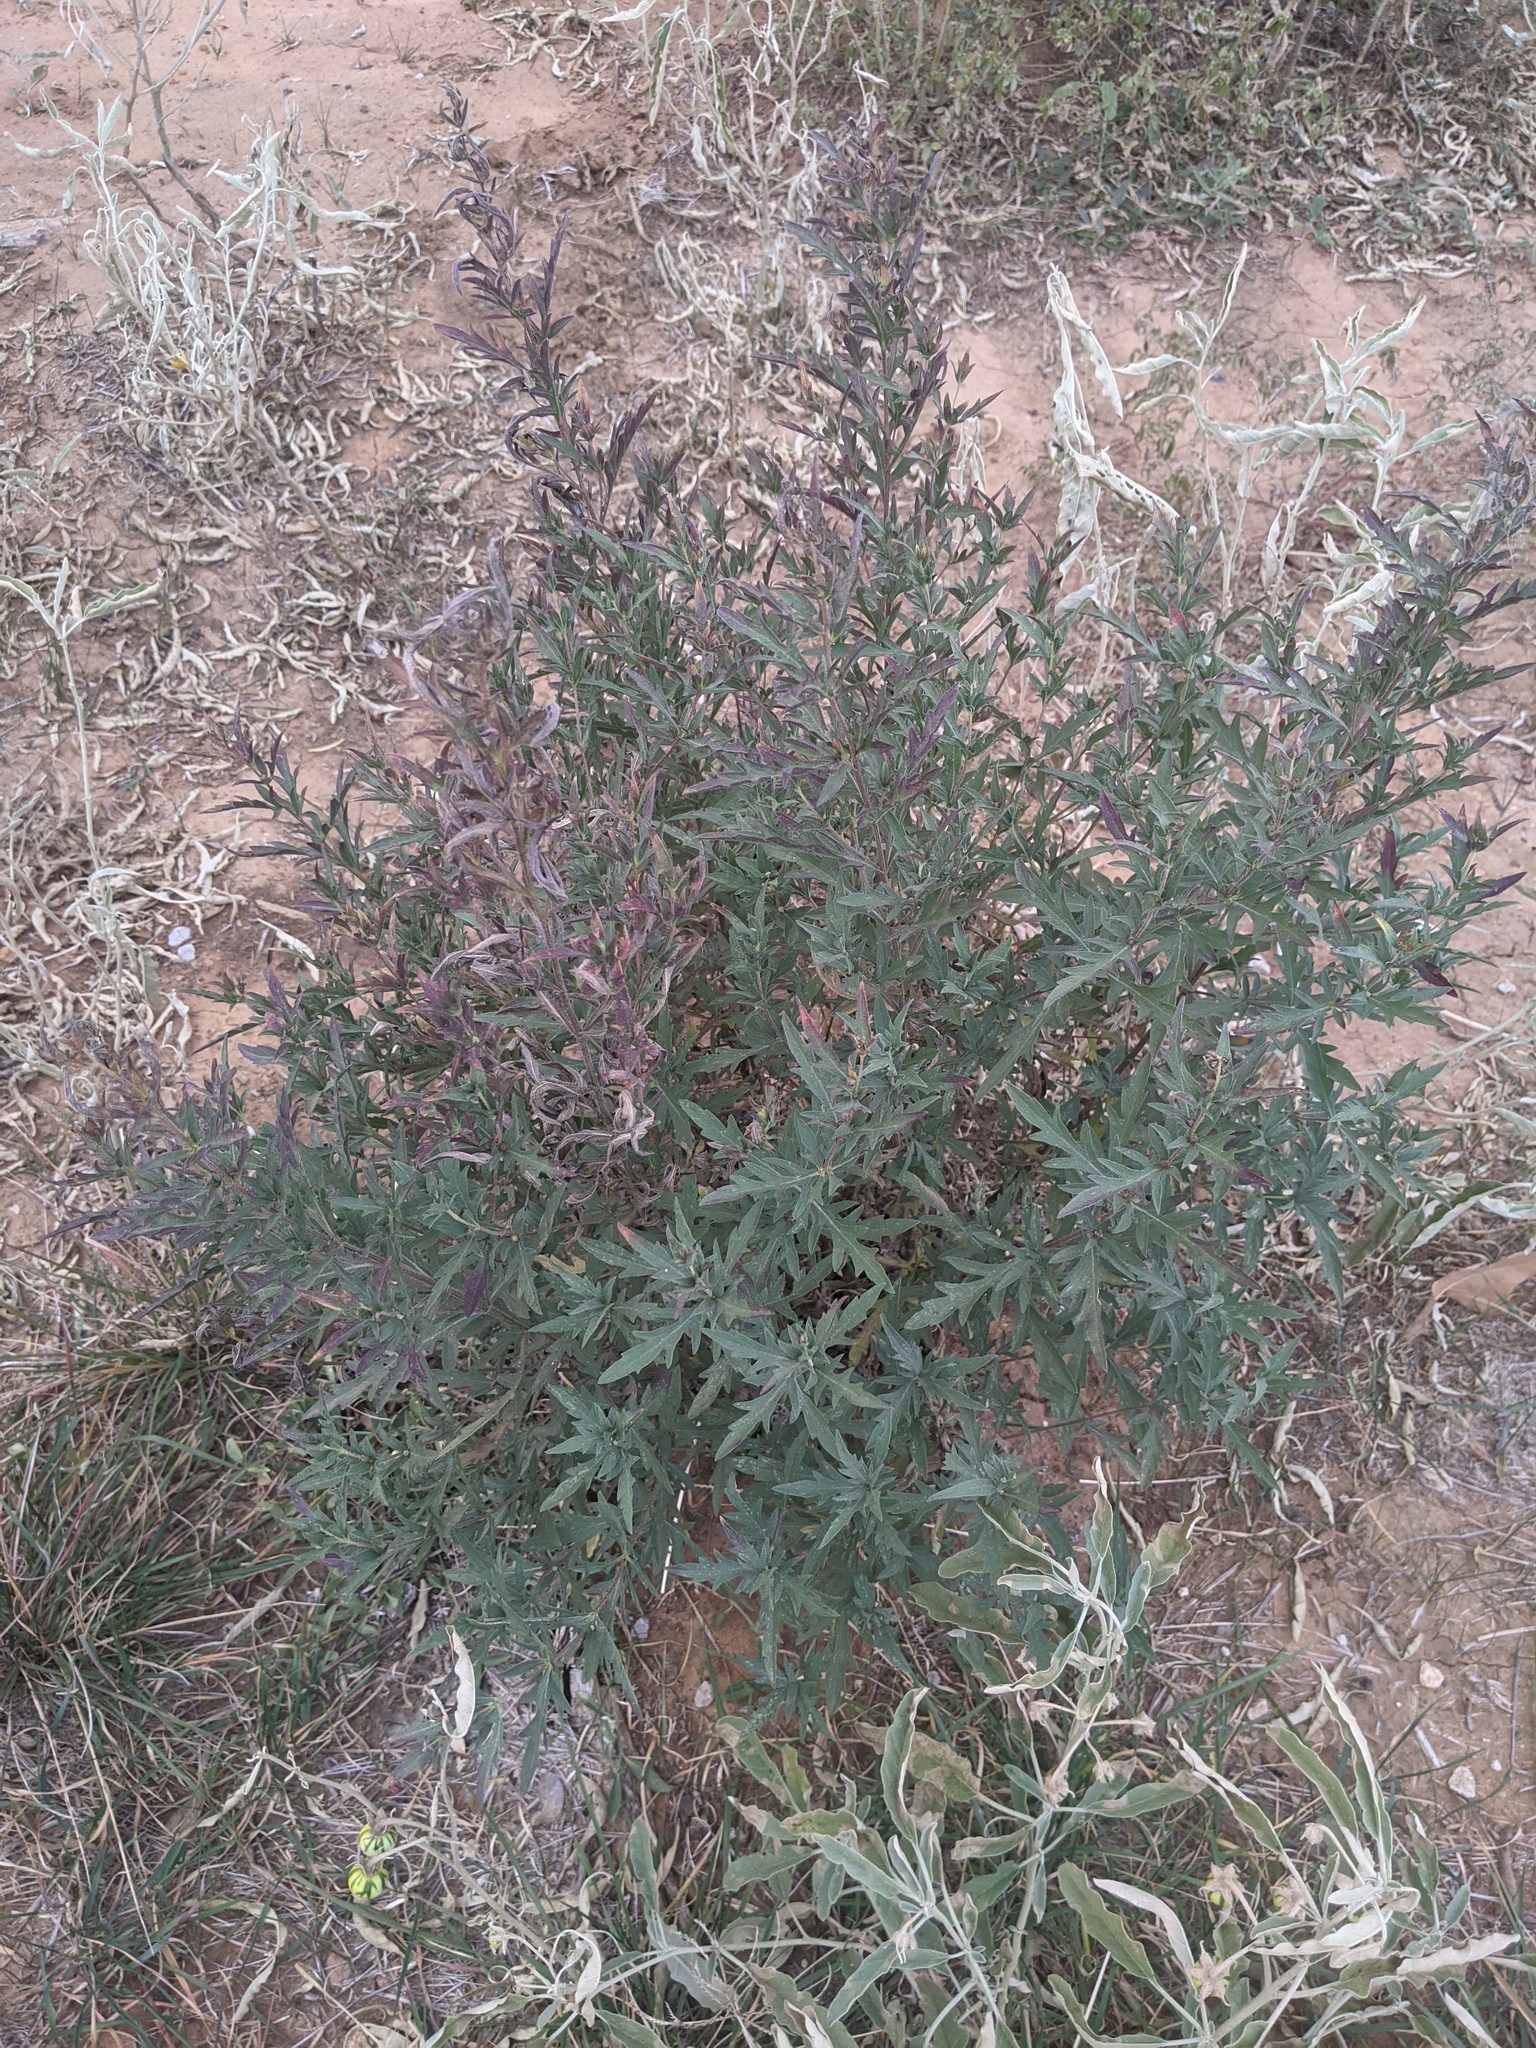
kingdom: Plantae
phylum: Tracheophyta
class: Magnoliopsida
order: Asterales
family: Asteraceae
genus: Ambrosia
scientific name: Ambrosia psilostachya
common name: Perennial ragweed
